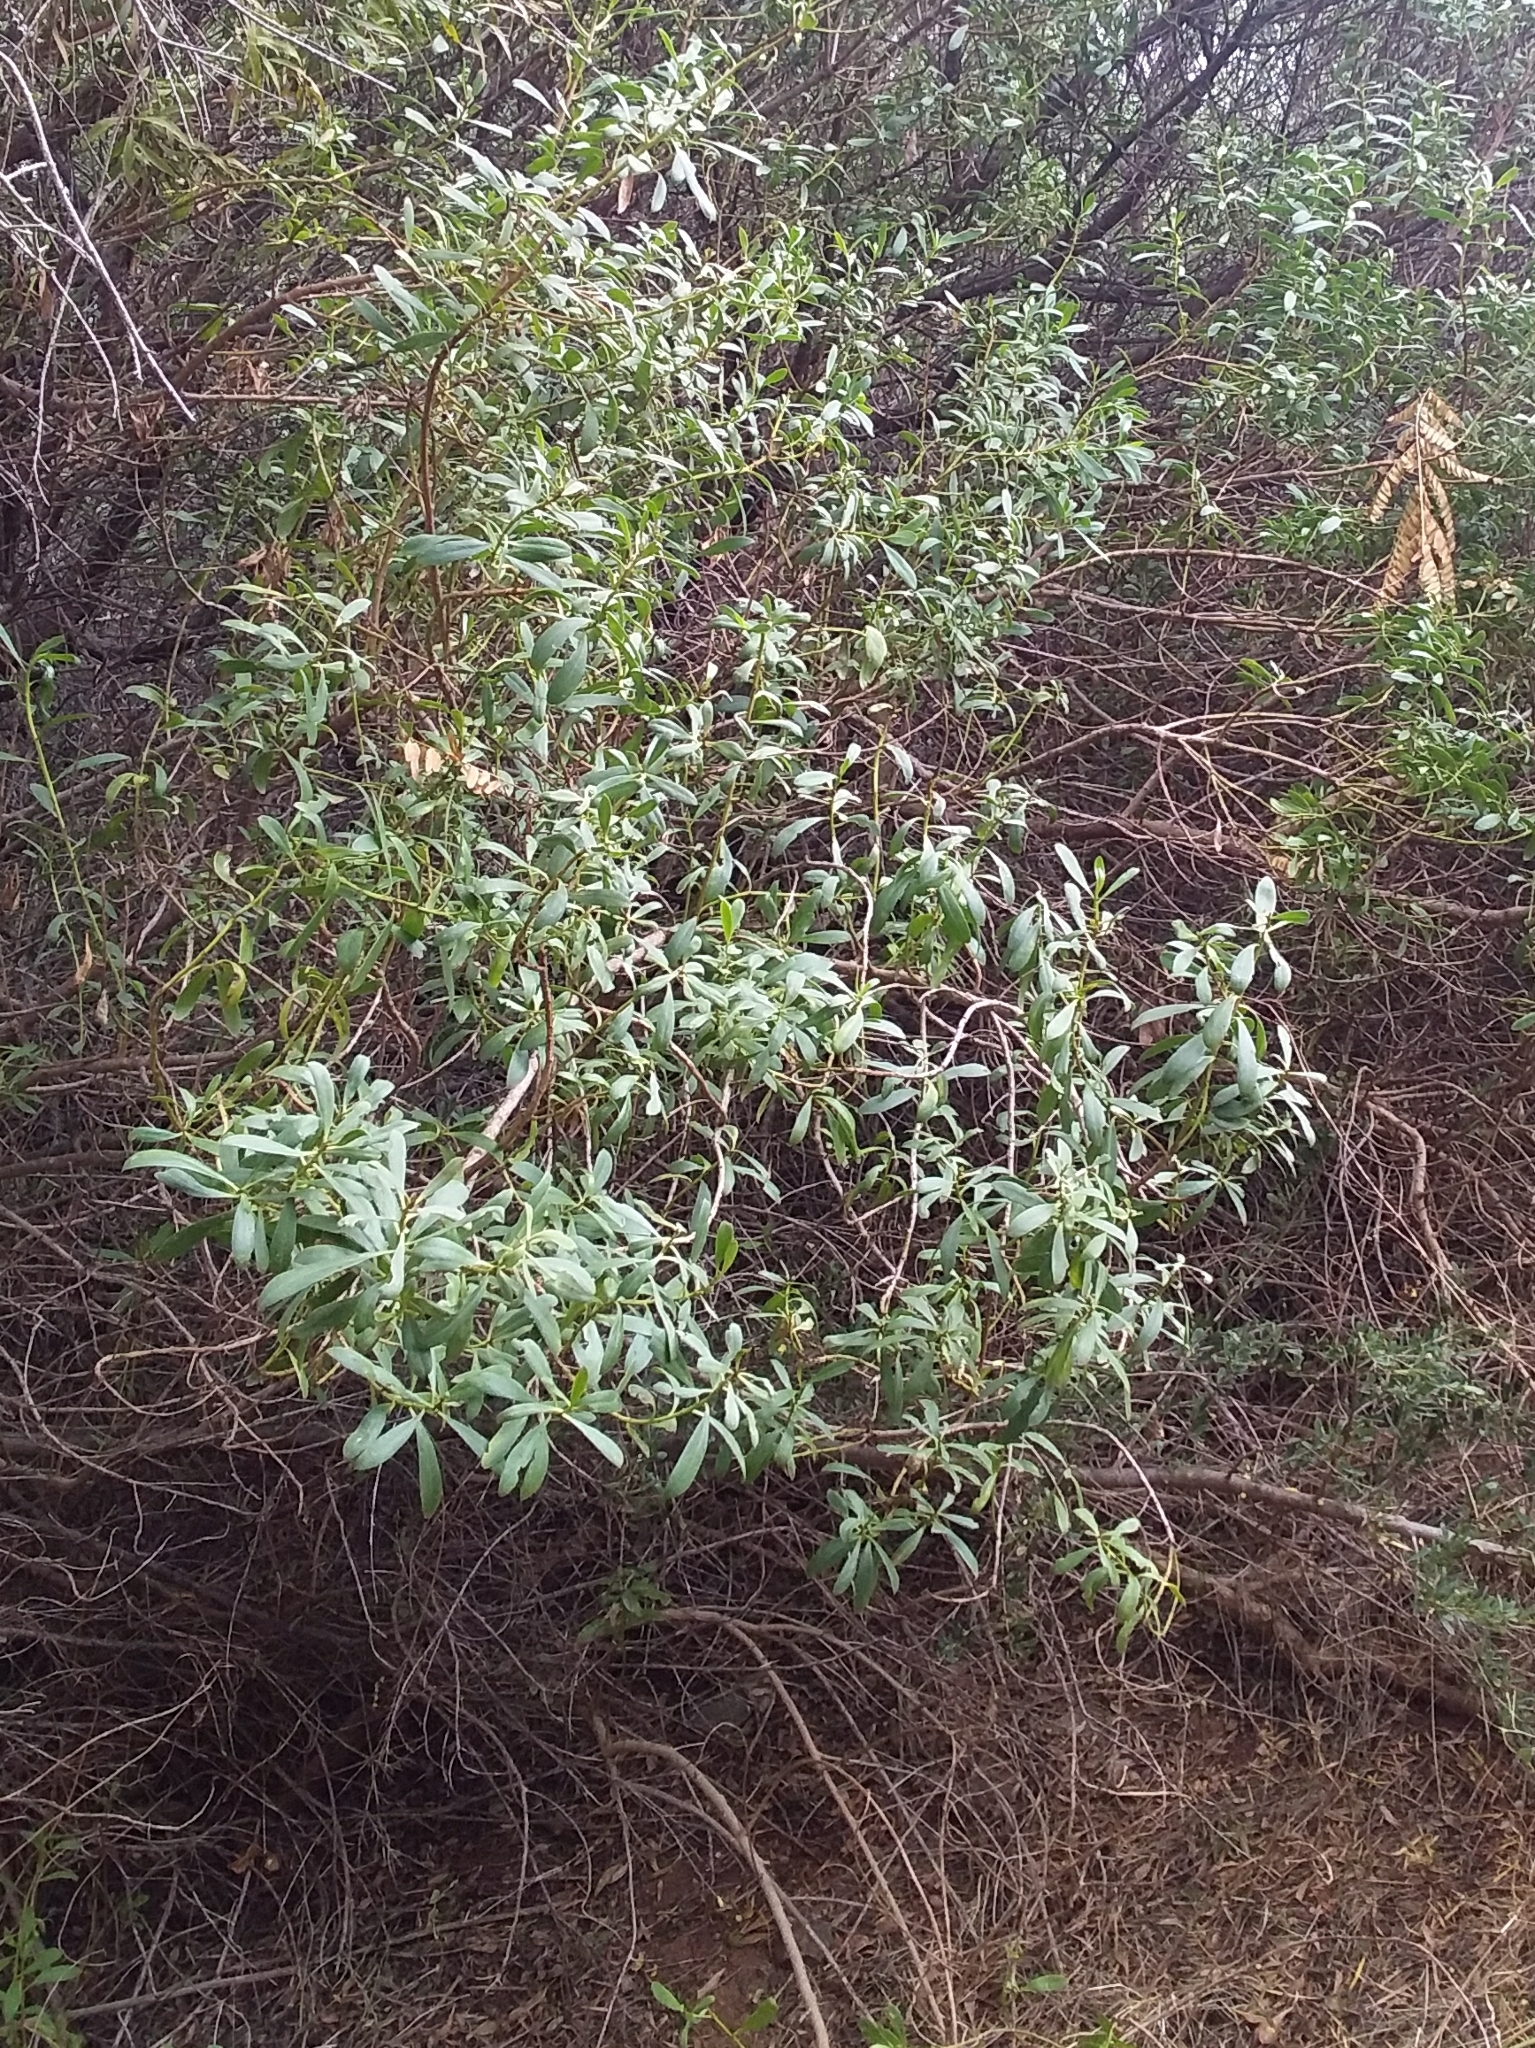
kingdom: Plantae
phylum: Tracheophyta
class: Magnoliopsida
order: Lamiales
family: Scrophulariaceae
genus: Myoporum
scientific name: Myoporum insulare
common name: Common boobialla
